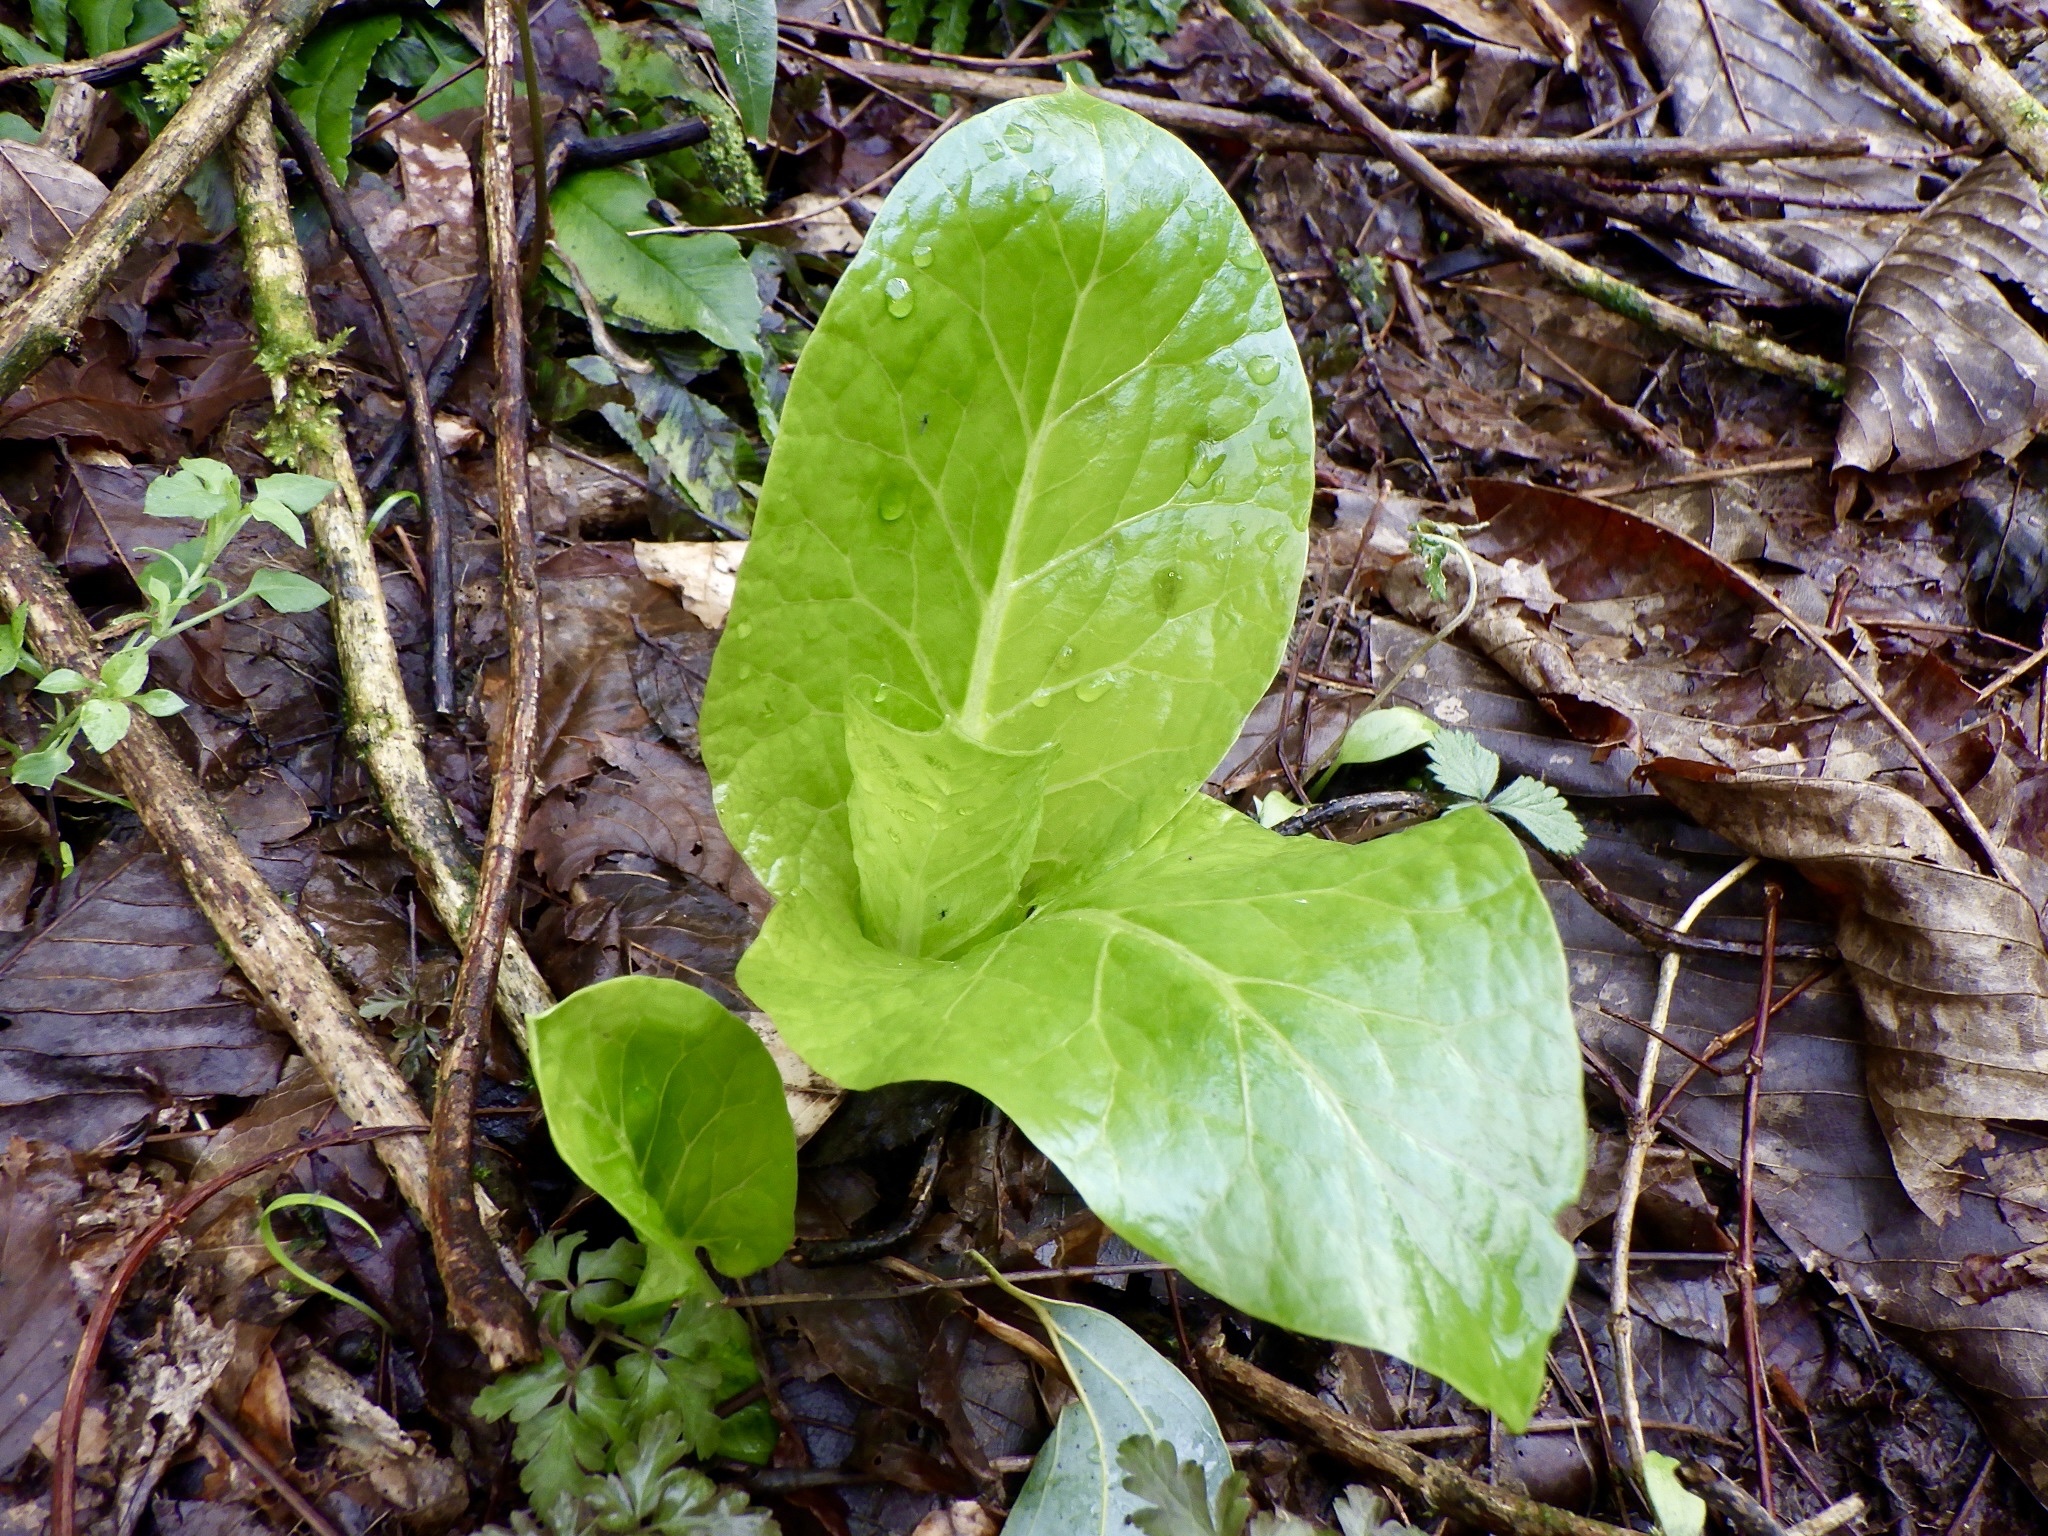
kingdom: Plantae
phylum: Tracheophyta
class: Liliopsida
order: Liliales
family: Liliaceae
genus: Cardiocrinum
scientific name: Cardiocrinum cordatum
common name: Lily
